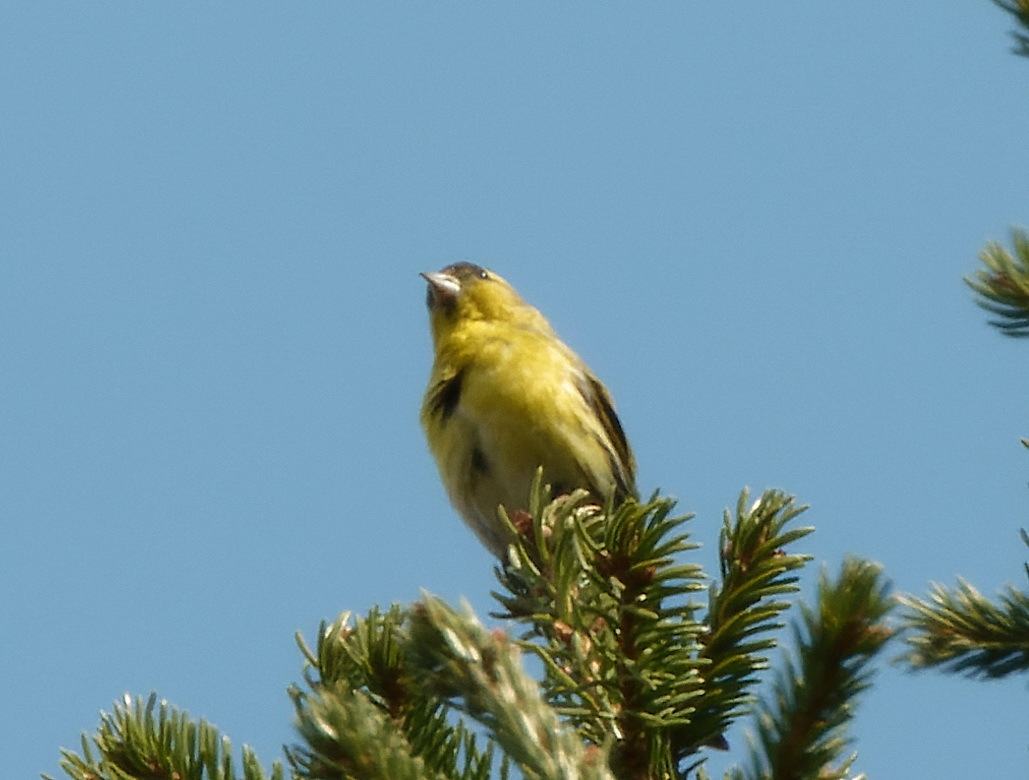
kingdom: Animalia
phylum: Chordata
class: Aves
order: Passeriformes
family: Fringillidae
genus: Spinus
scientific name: Spinus spinus
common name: Eurasian siskin
